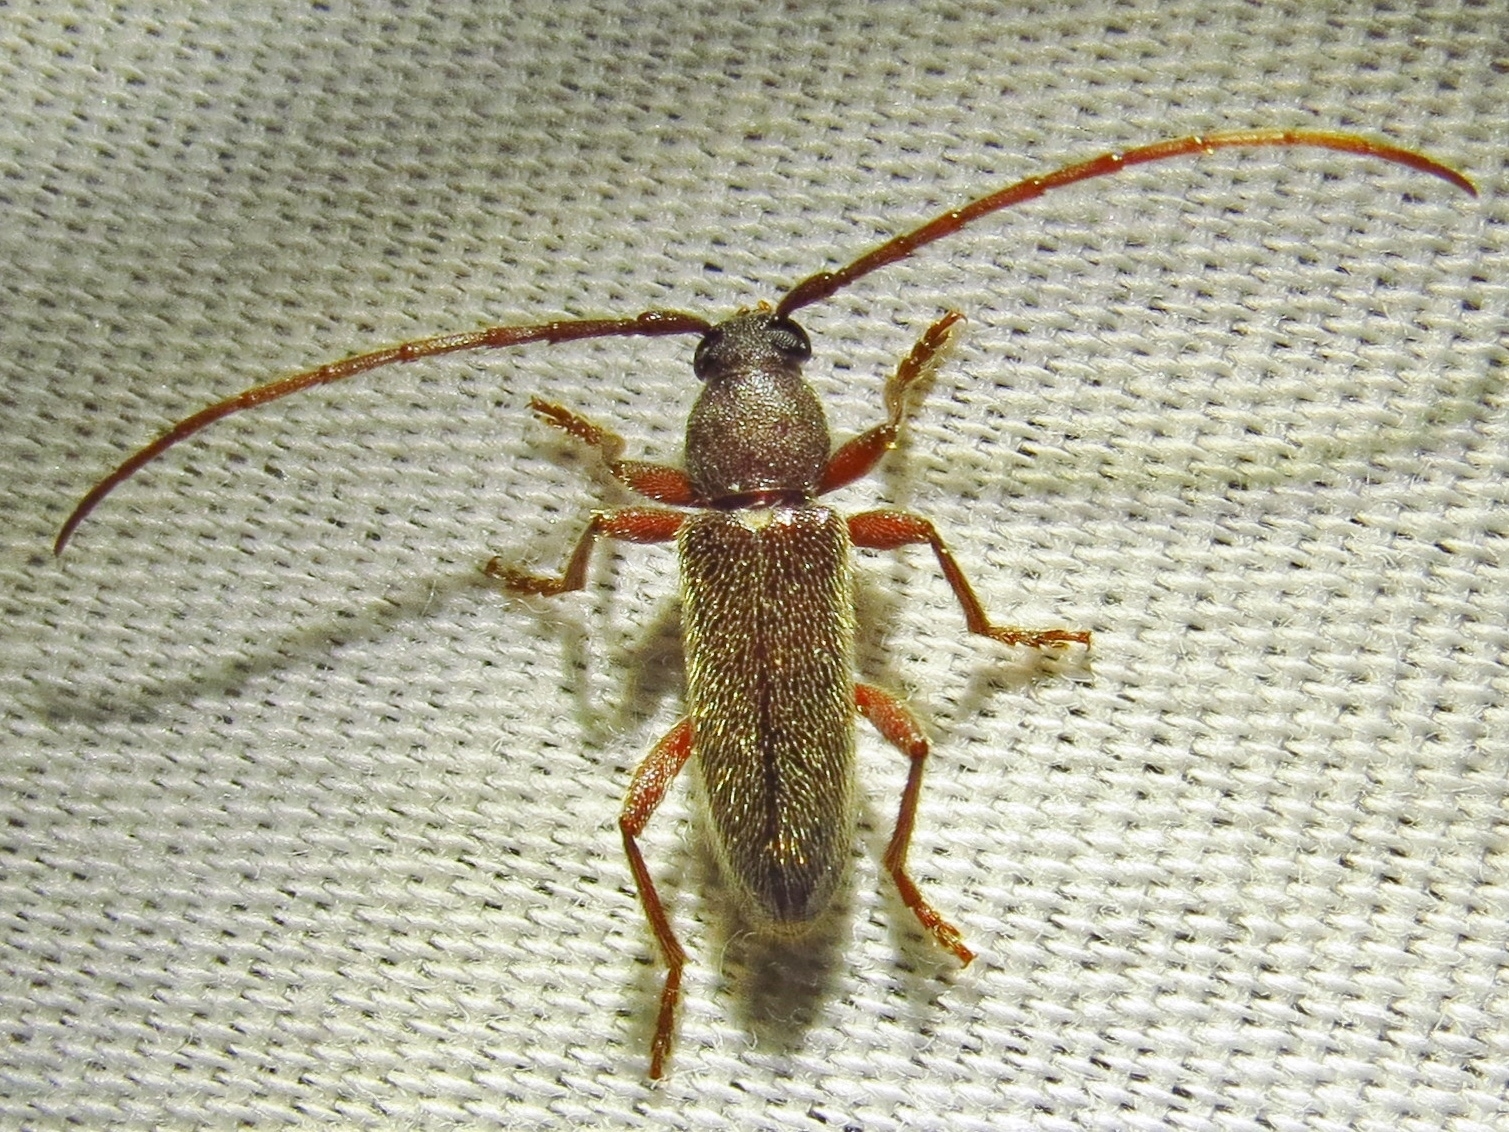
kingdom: Animalia
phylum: Arthropoda
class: Insecta
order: Coleoptera
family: Cerambycidae
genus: Anelaphus
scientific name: Anelaphus moestus
